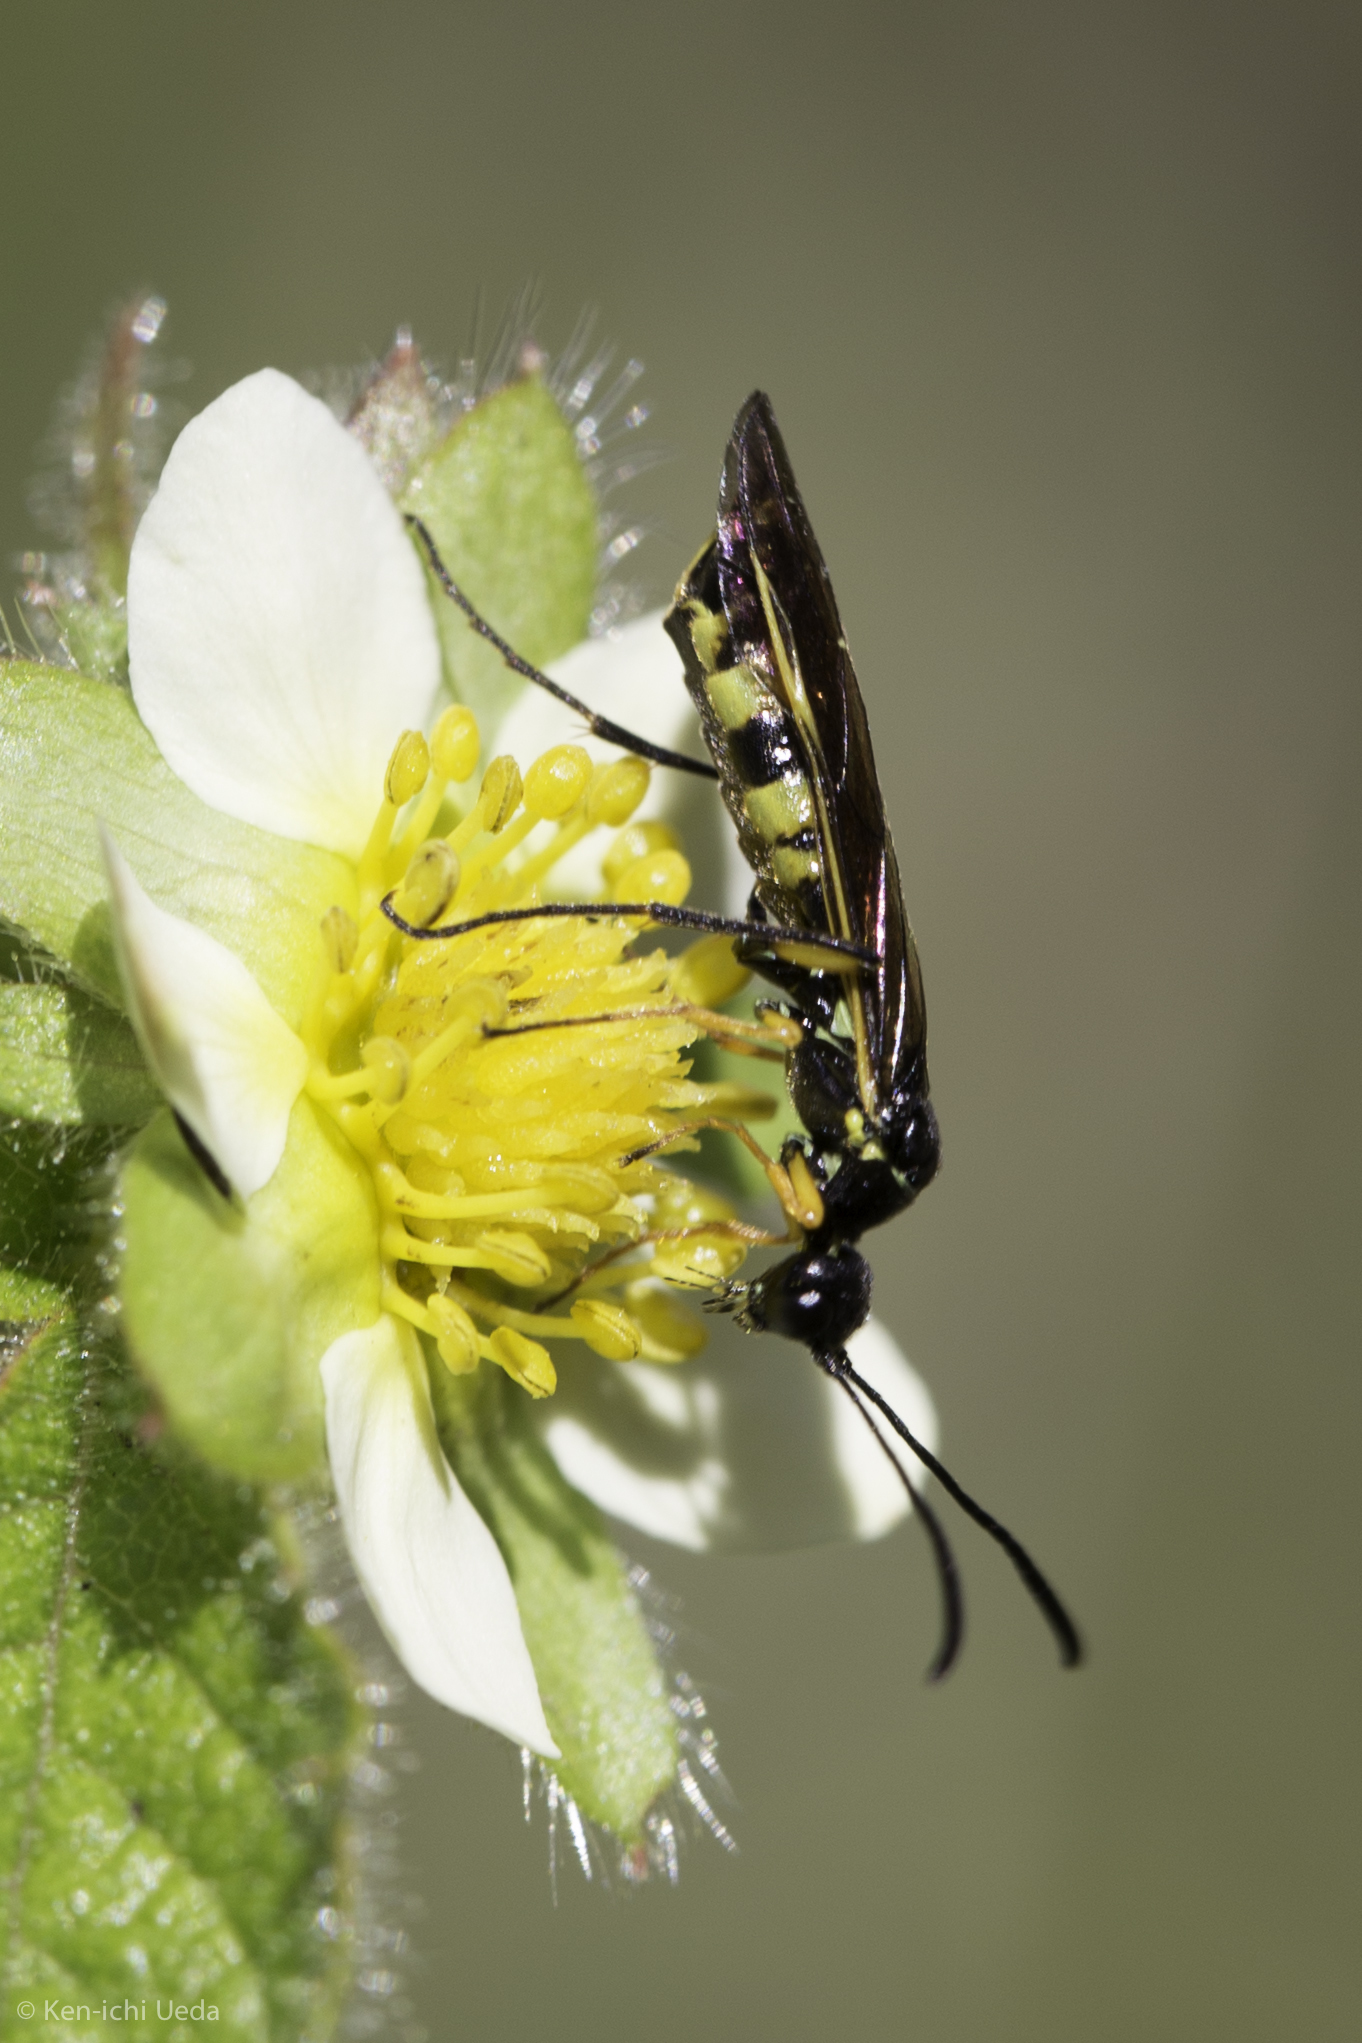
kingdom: Animalia
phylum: Arthropoda
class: Insecta
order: Hymenoptera
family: Cephidae
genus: Calameuta
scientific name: Calameuta
